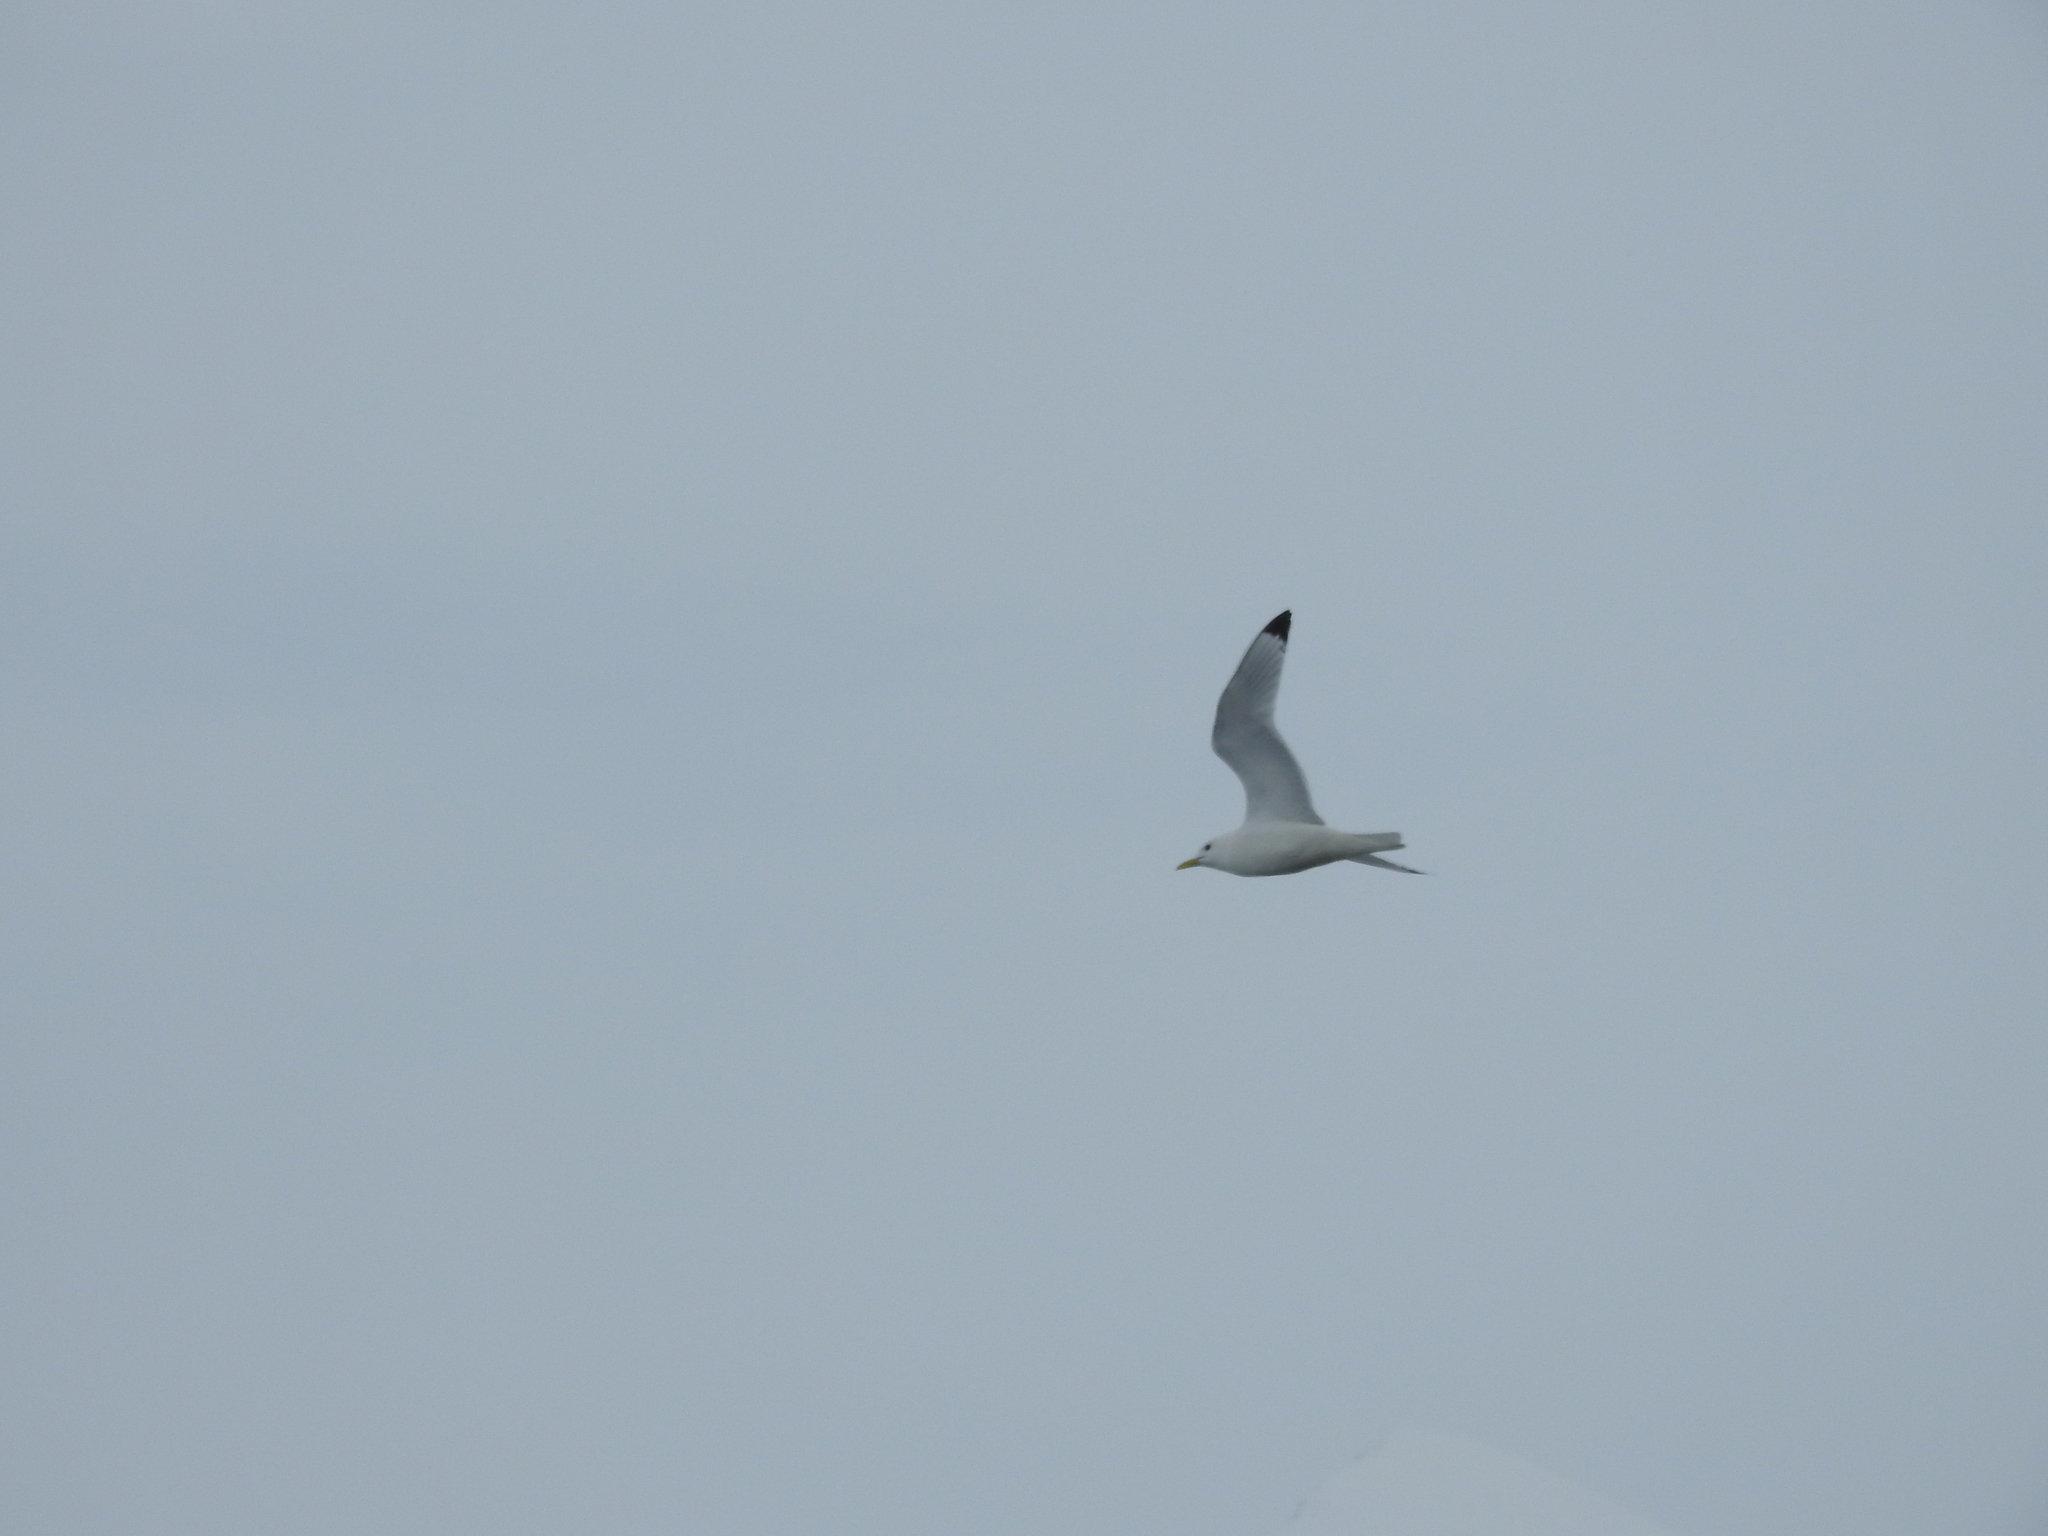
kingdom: Animalia
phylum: Chordata
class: Aves
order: Charadriiformes
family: Laridae
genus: Rissa
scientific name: Rissa tridactyla
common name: Black-legged kittiwake
